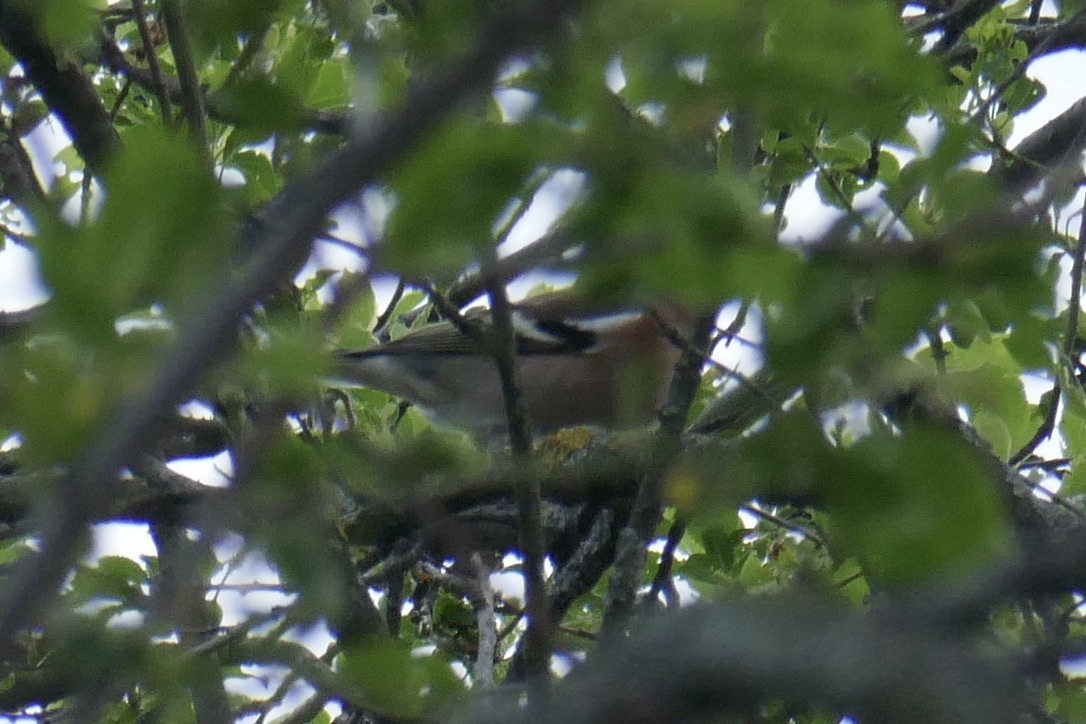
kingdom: Animalia
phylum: Chordata
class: Aves
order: Passeriformes
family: Fringillidae
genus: Fringilla
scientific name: Fringilla coelebs
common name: Common chaffinch
